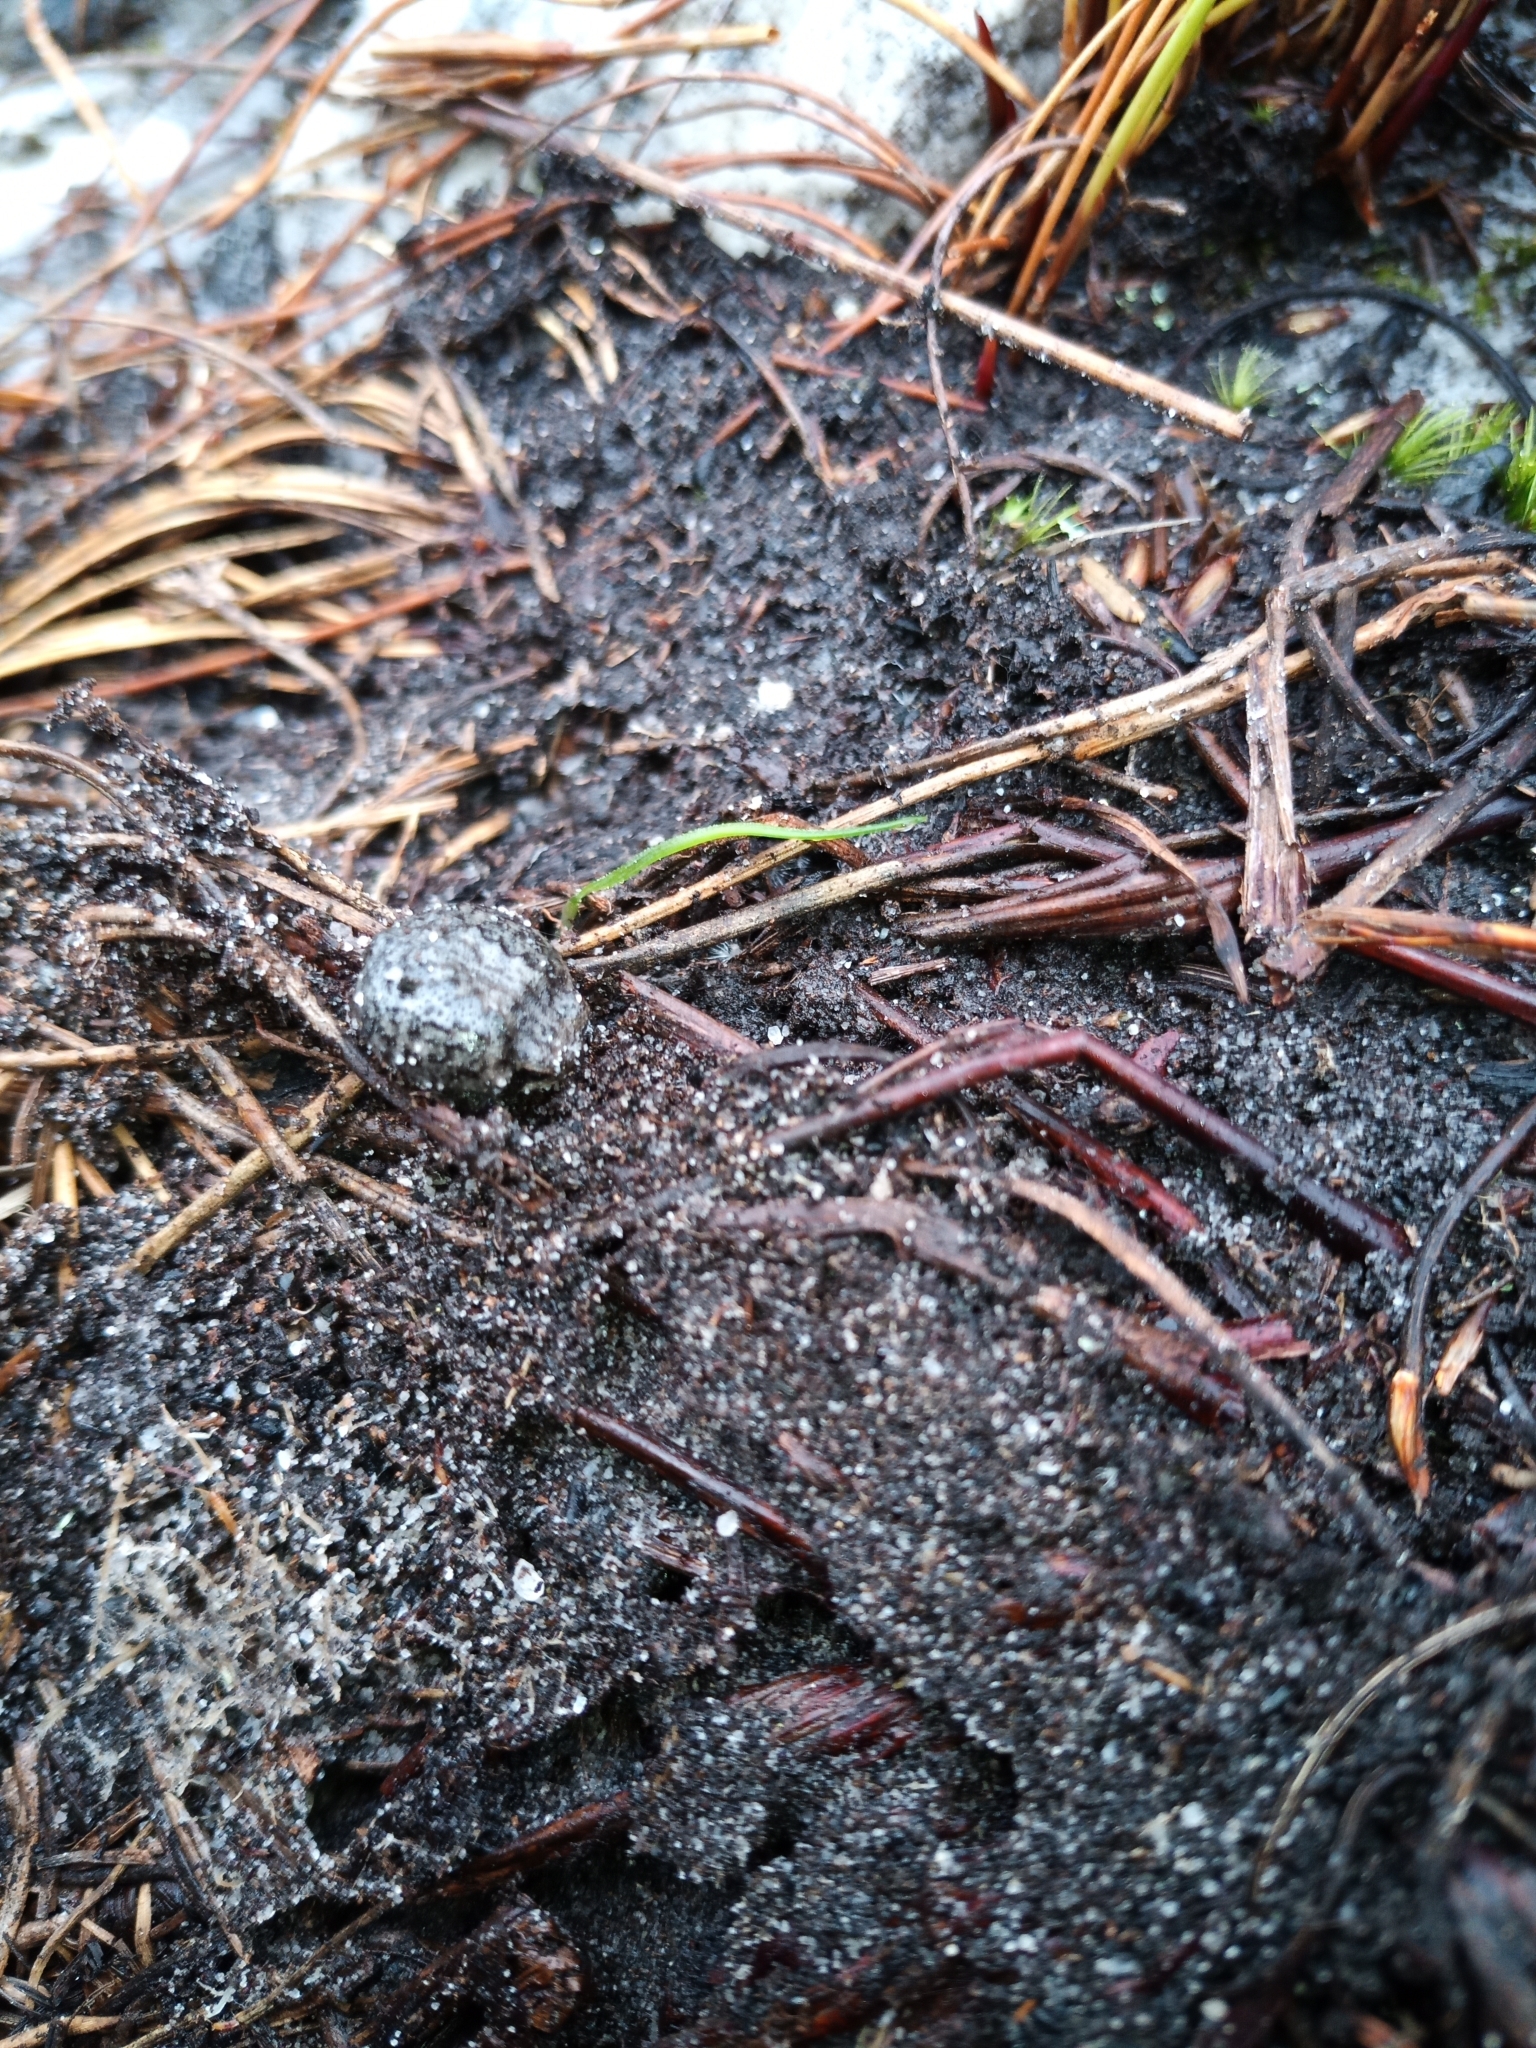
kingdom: Animalia
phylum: Chordata
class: Amphibia
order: Anura
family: Brevicipitidae
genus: Breviceps
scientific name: Breviceps montanus
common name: Mountain rain frog
